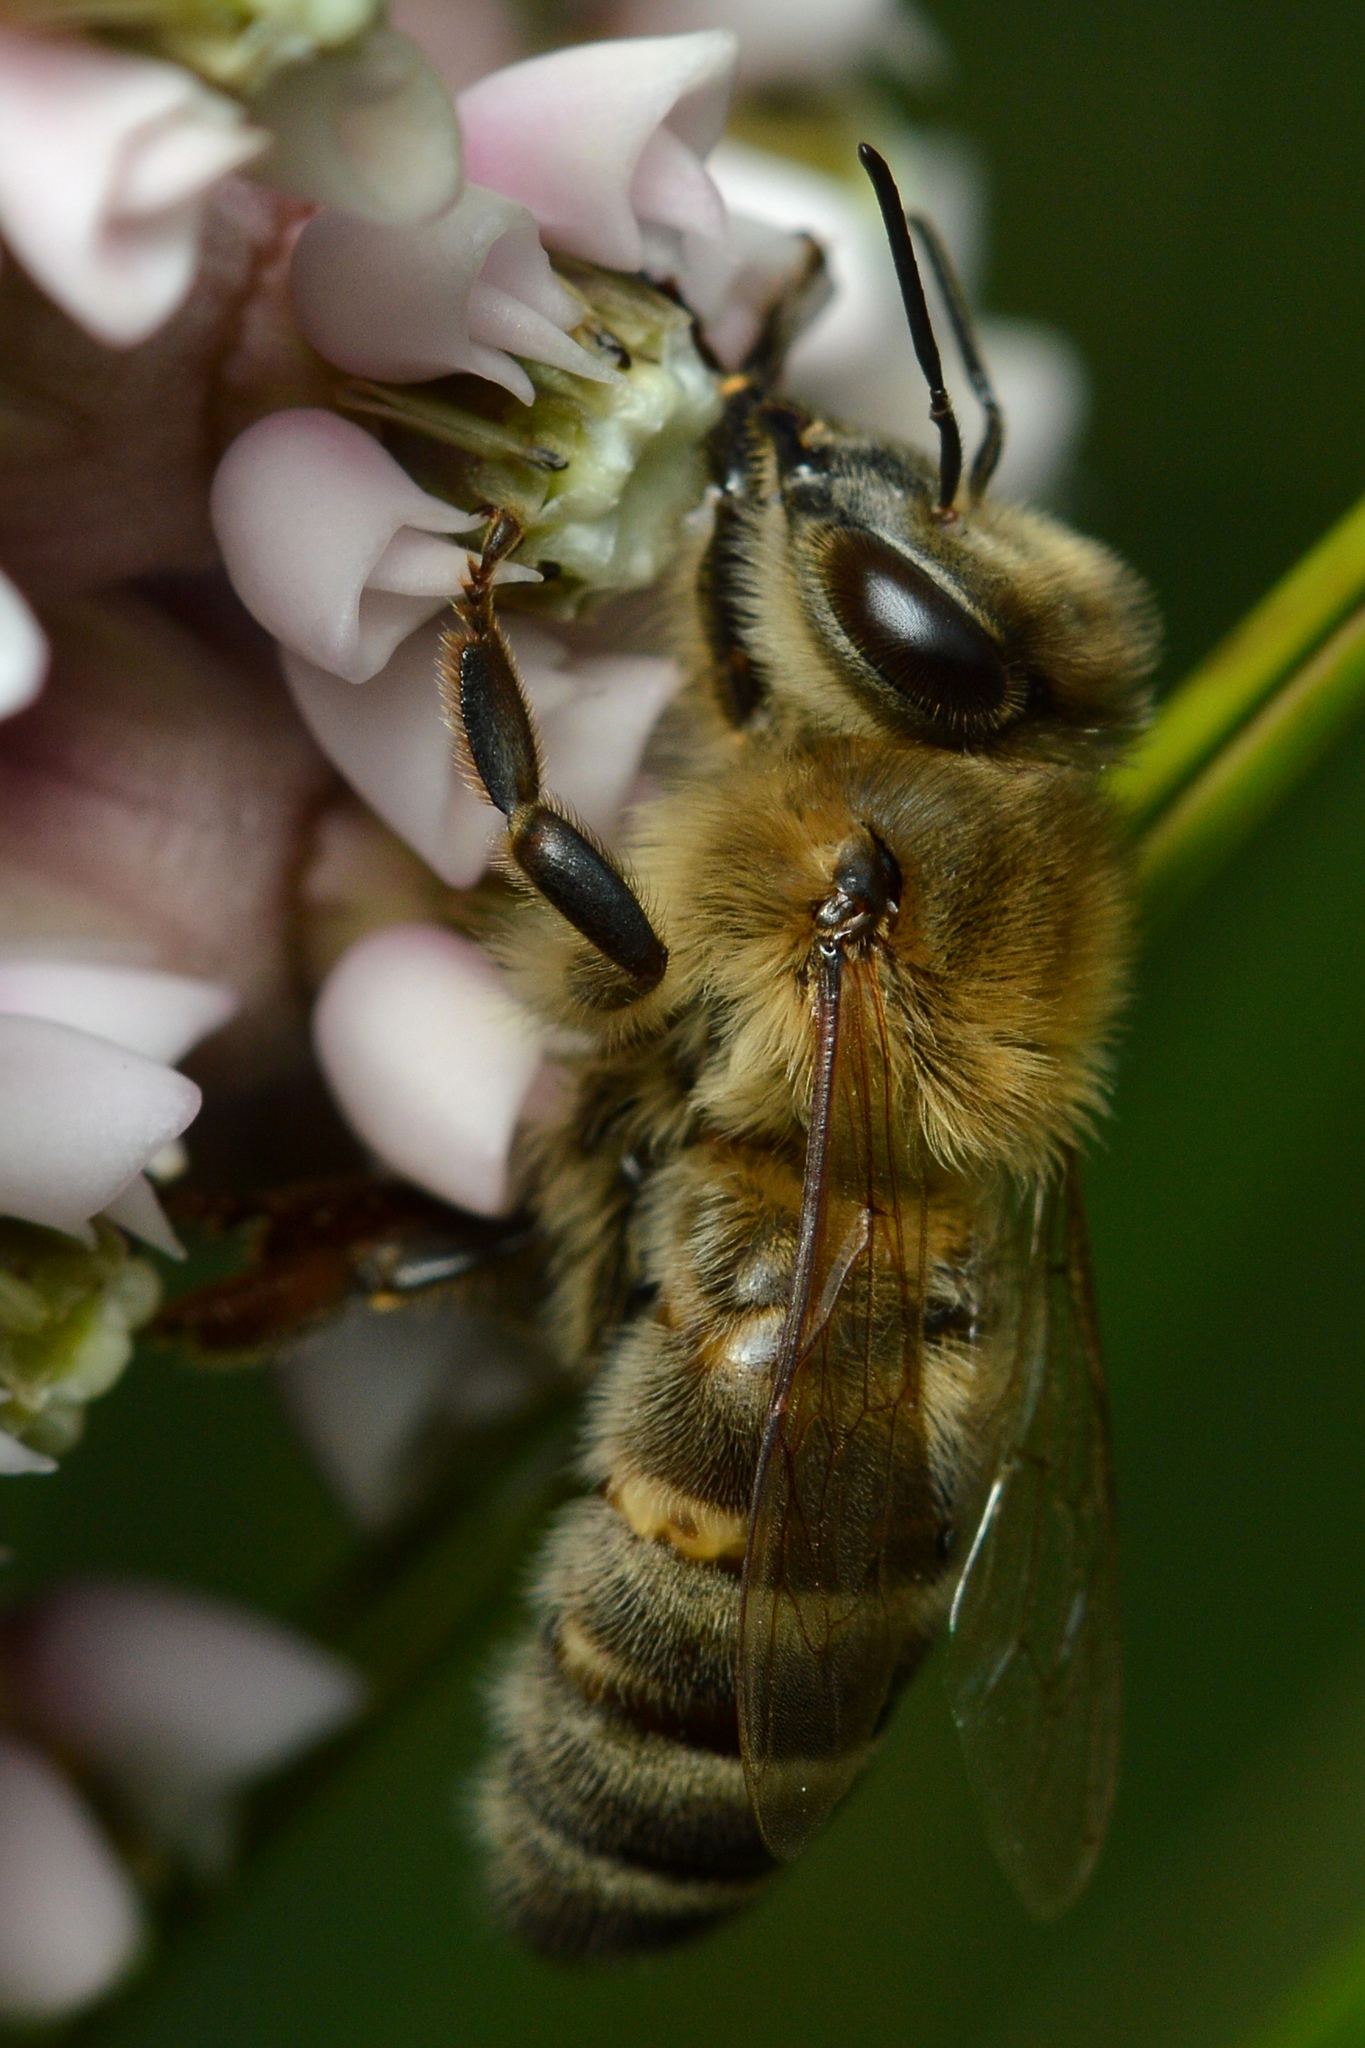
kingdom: Animalia
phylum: Arthropoda
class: Insecta
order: Hymenoptera
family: Apidae
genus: Apis
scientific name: Apis mellifera
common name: Honey bee
